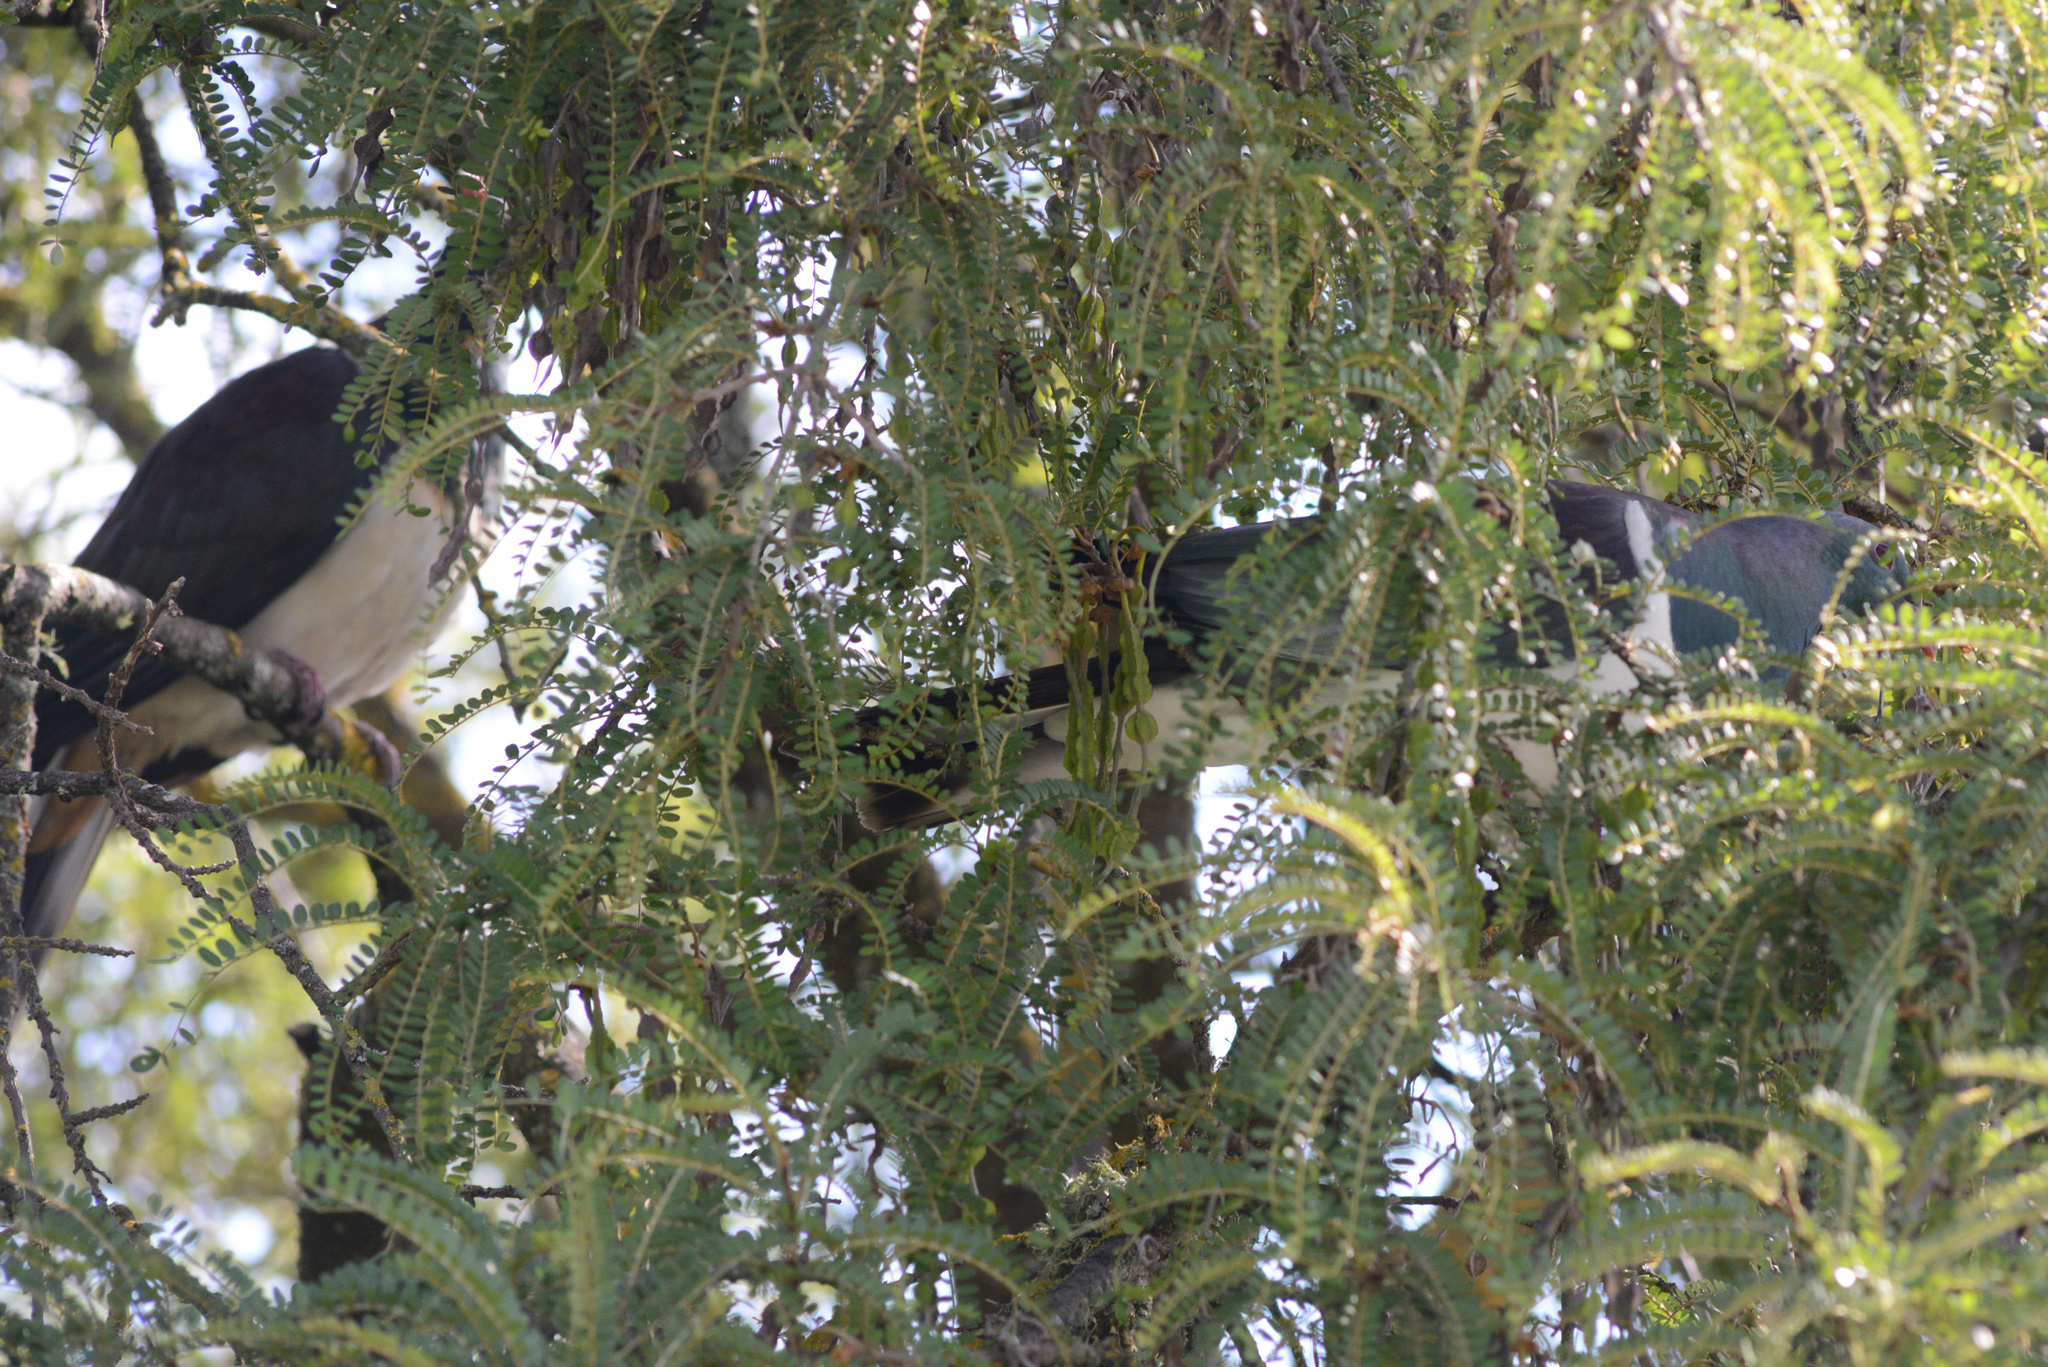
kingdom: Animalia
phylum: Chordata
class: Aves
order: Columbiformes
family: Columbidae
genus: Hemiphaga
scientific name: Hemiphaga novaeseelandiae
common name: New zealand pigeon
